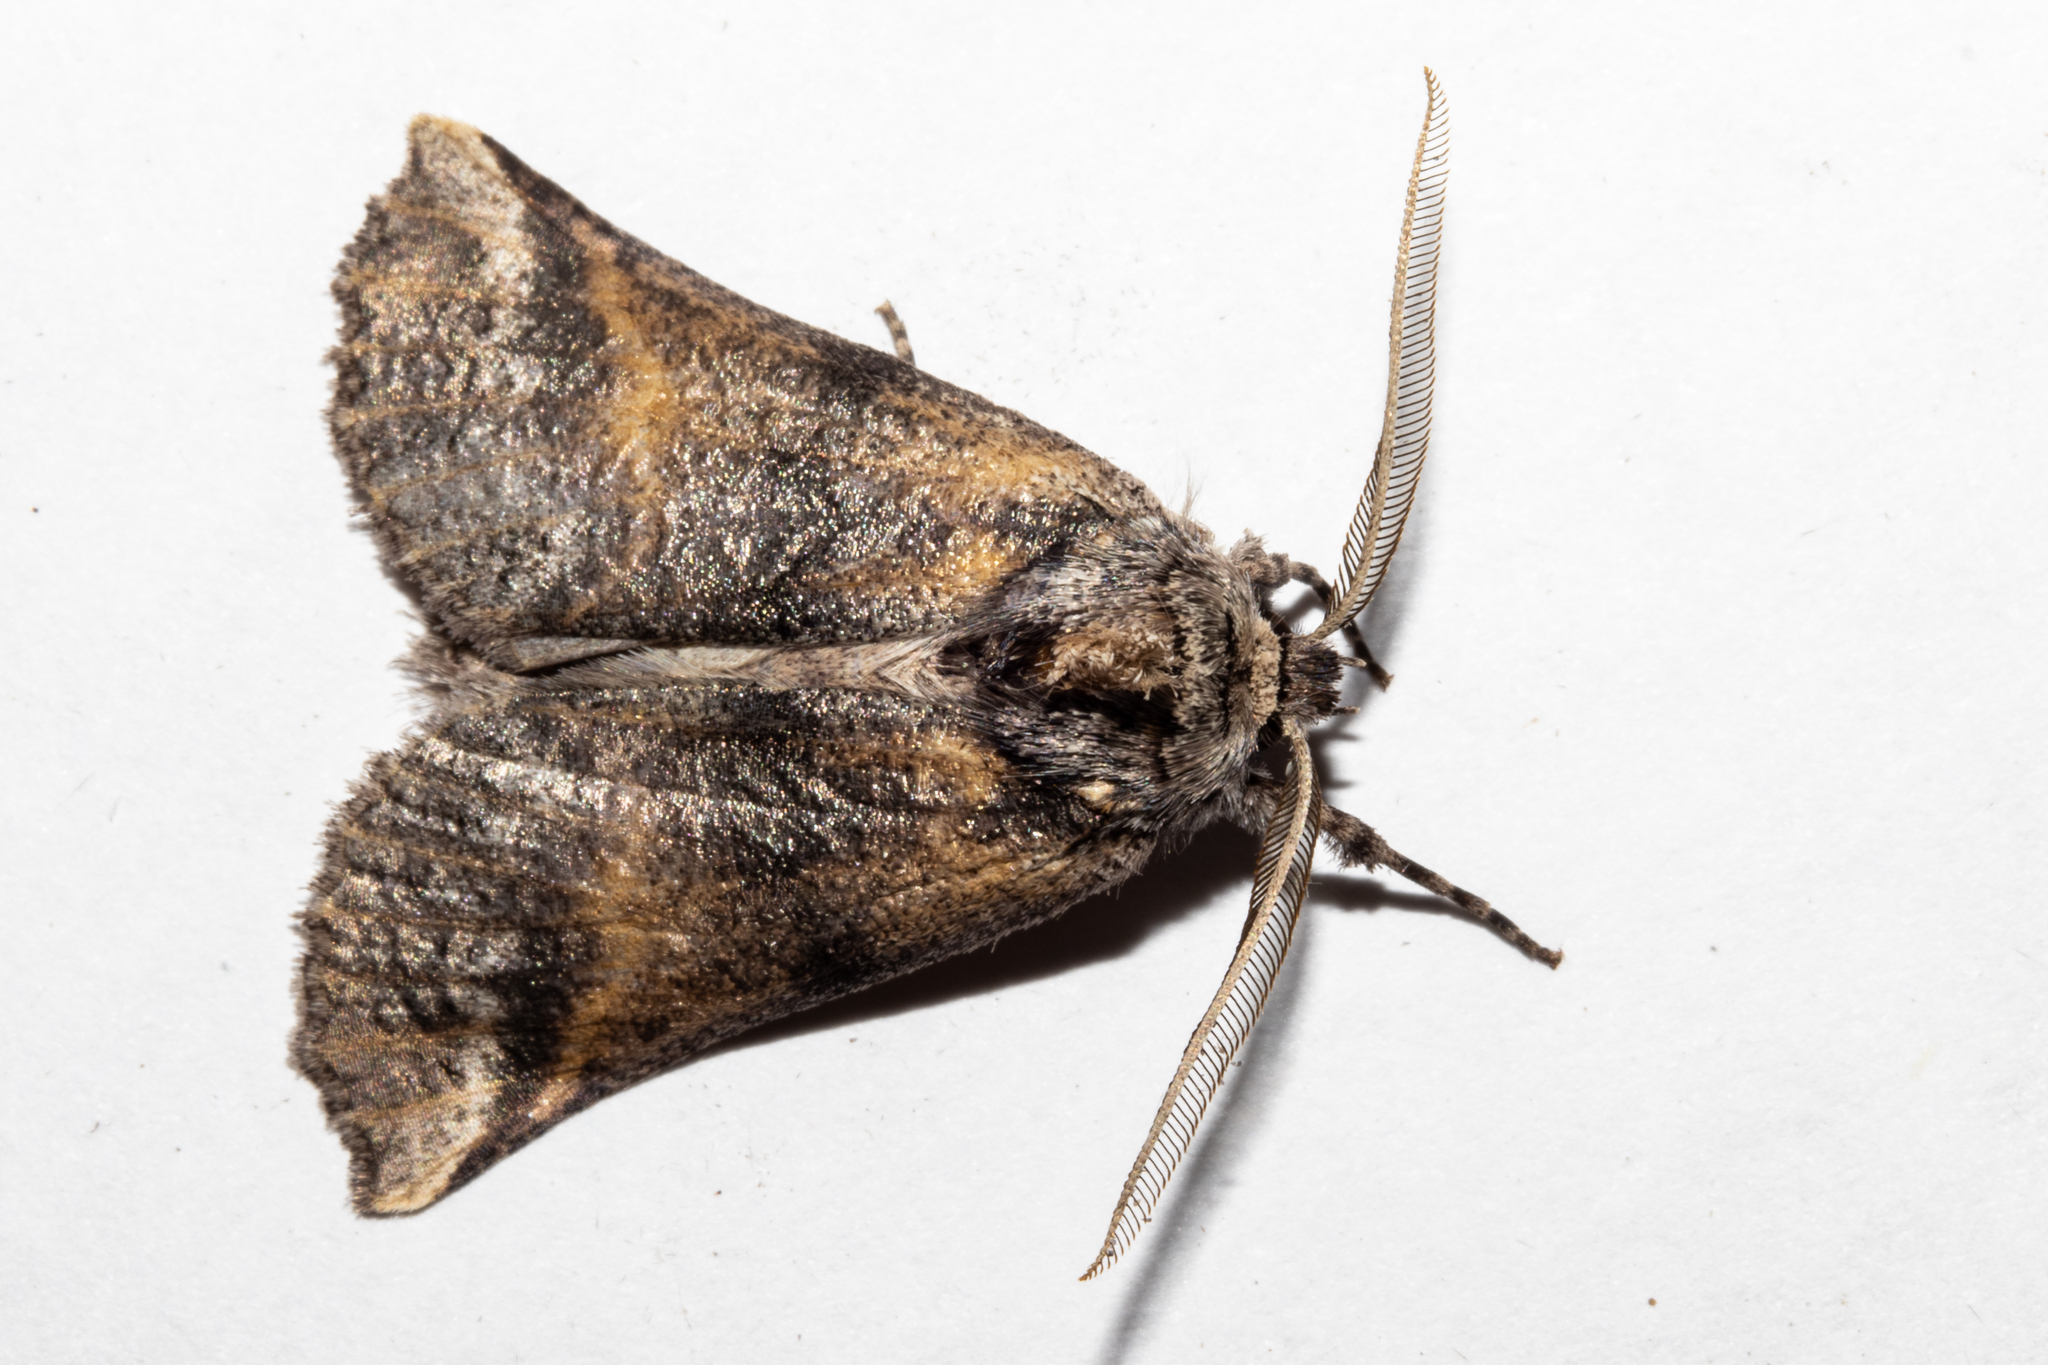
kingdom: Animalia
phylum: Arthropoda
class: Insecta
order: Lepidoptera
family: Geometridae
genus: Declana
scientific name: Declana
